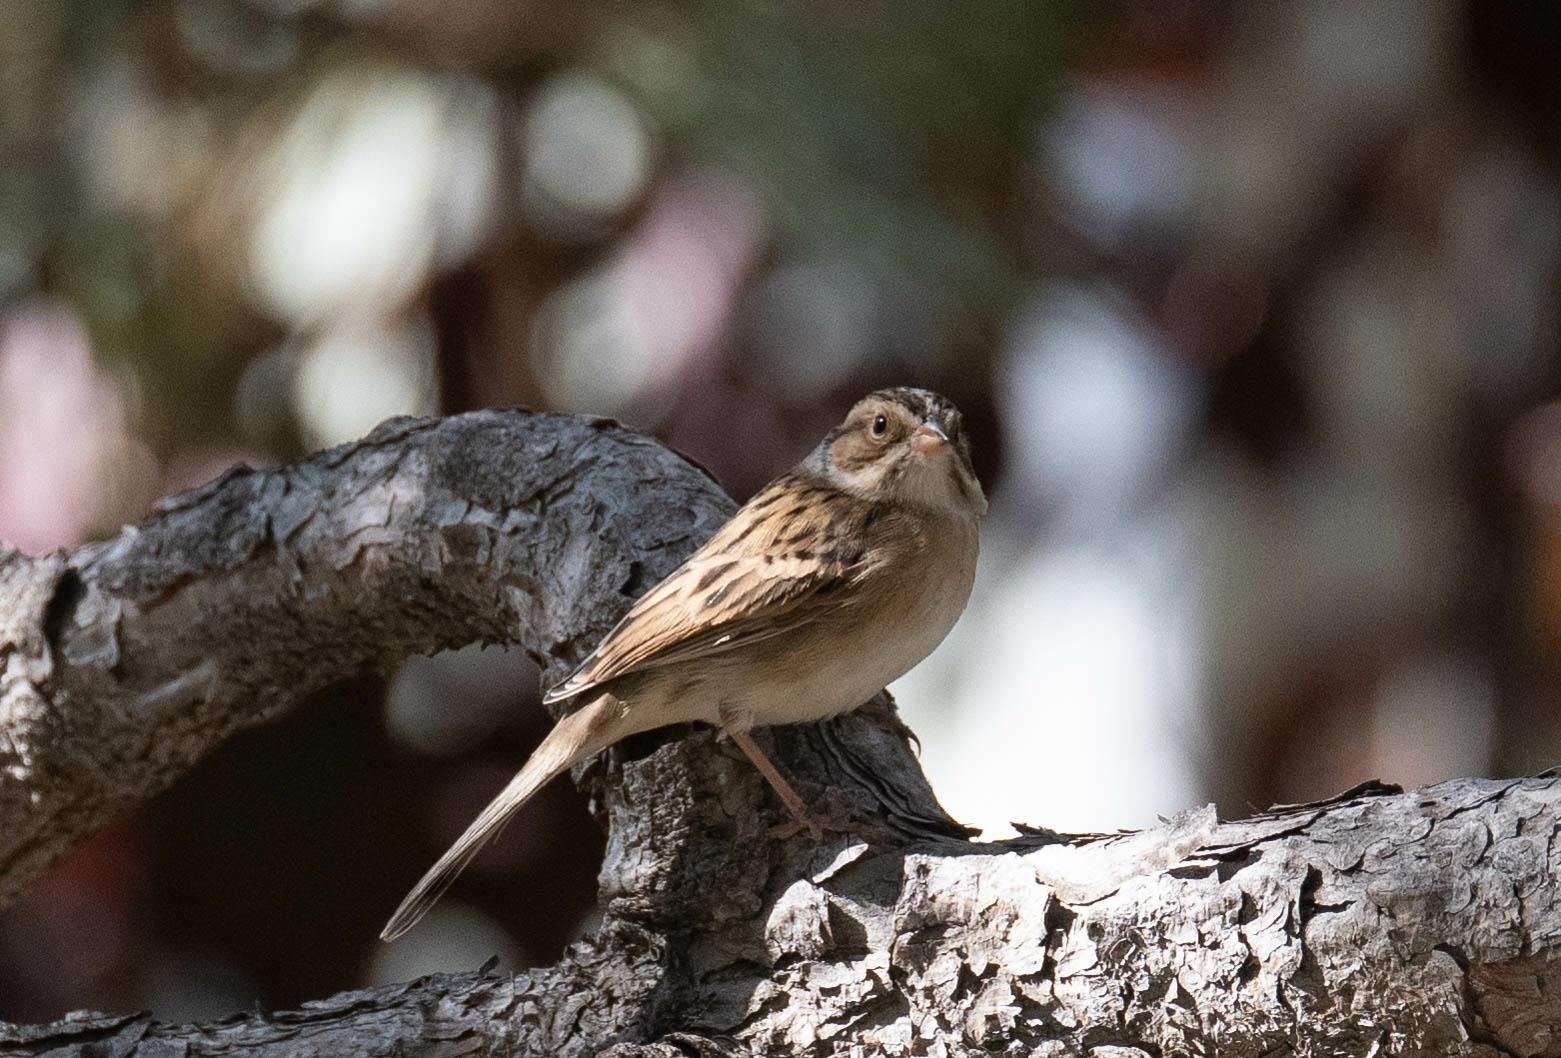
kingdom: Animalia
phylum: Chordata
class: Aves
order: Passeriformes
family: Passerellidae
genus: Spizella
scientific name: Spizella pallida
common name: Clay-colored sparrow
